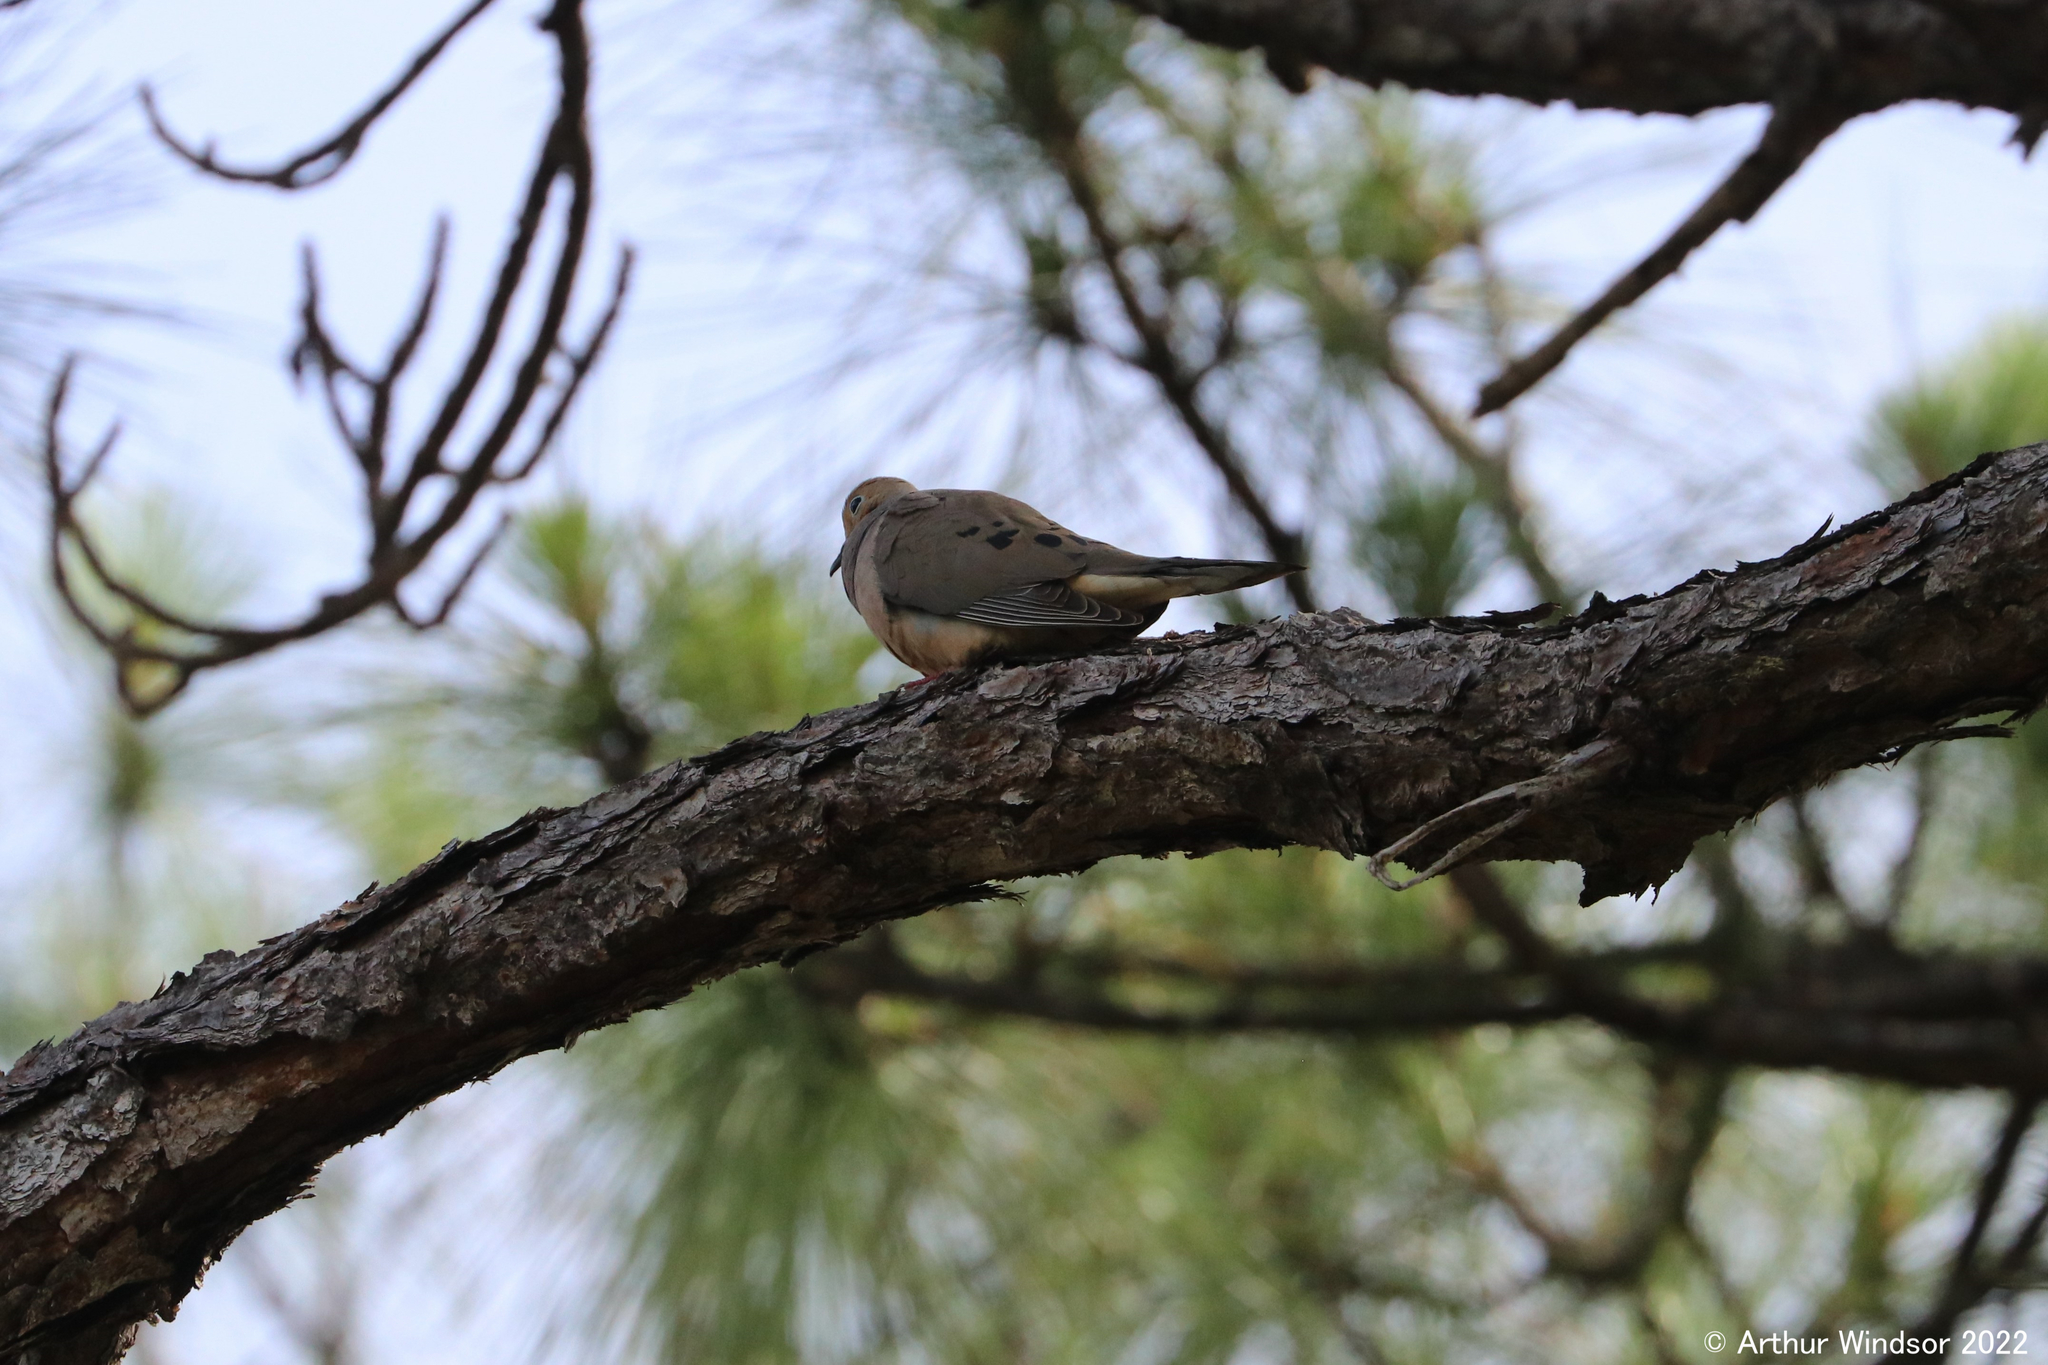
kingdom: Animalia
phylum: Chordata
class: Aves
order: Columbiformes
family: Columbidae
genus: Zenaida
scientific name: Zenaida macroura
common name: Mourning dove
